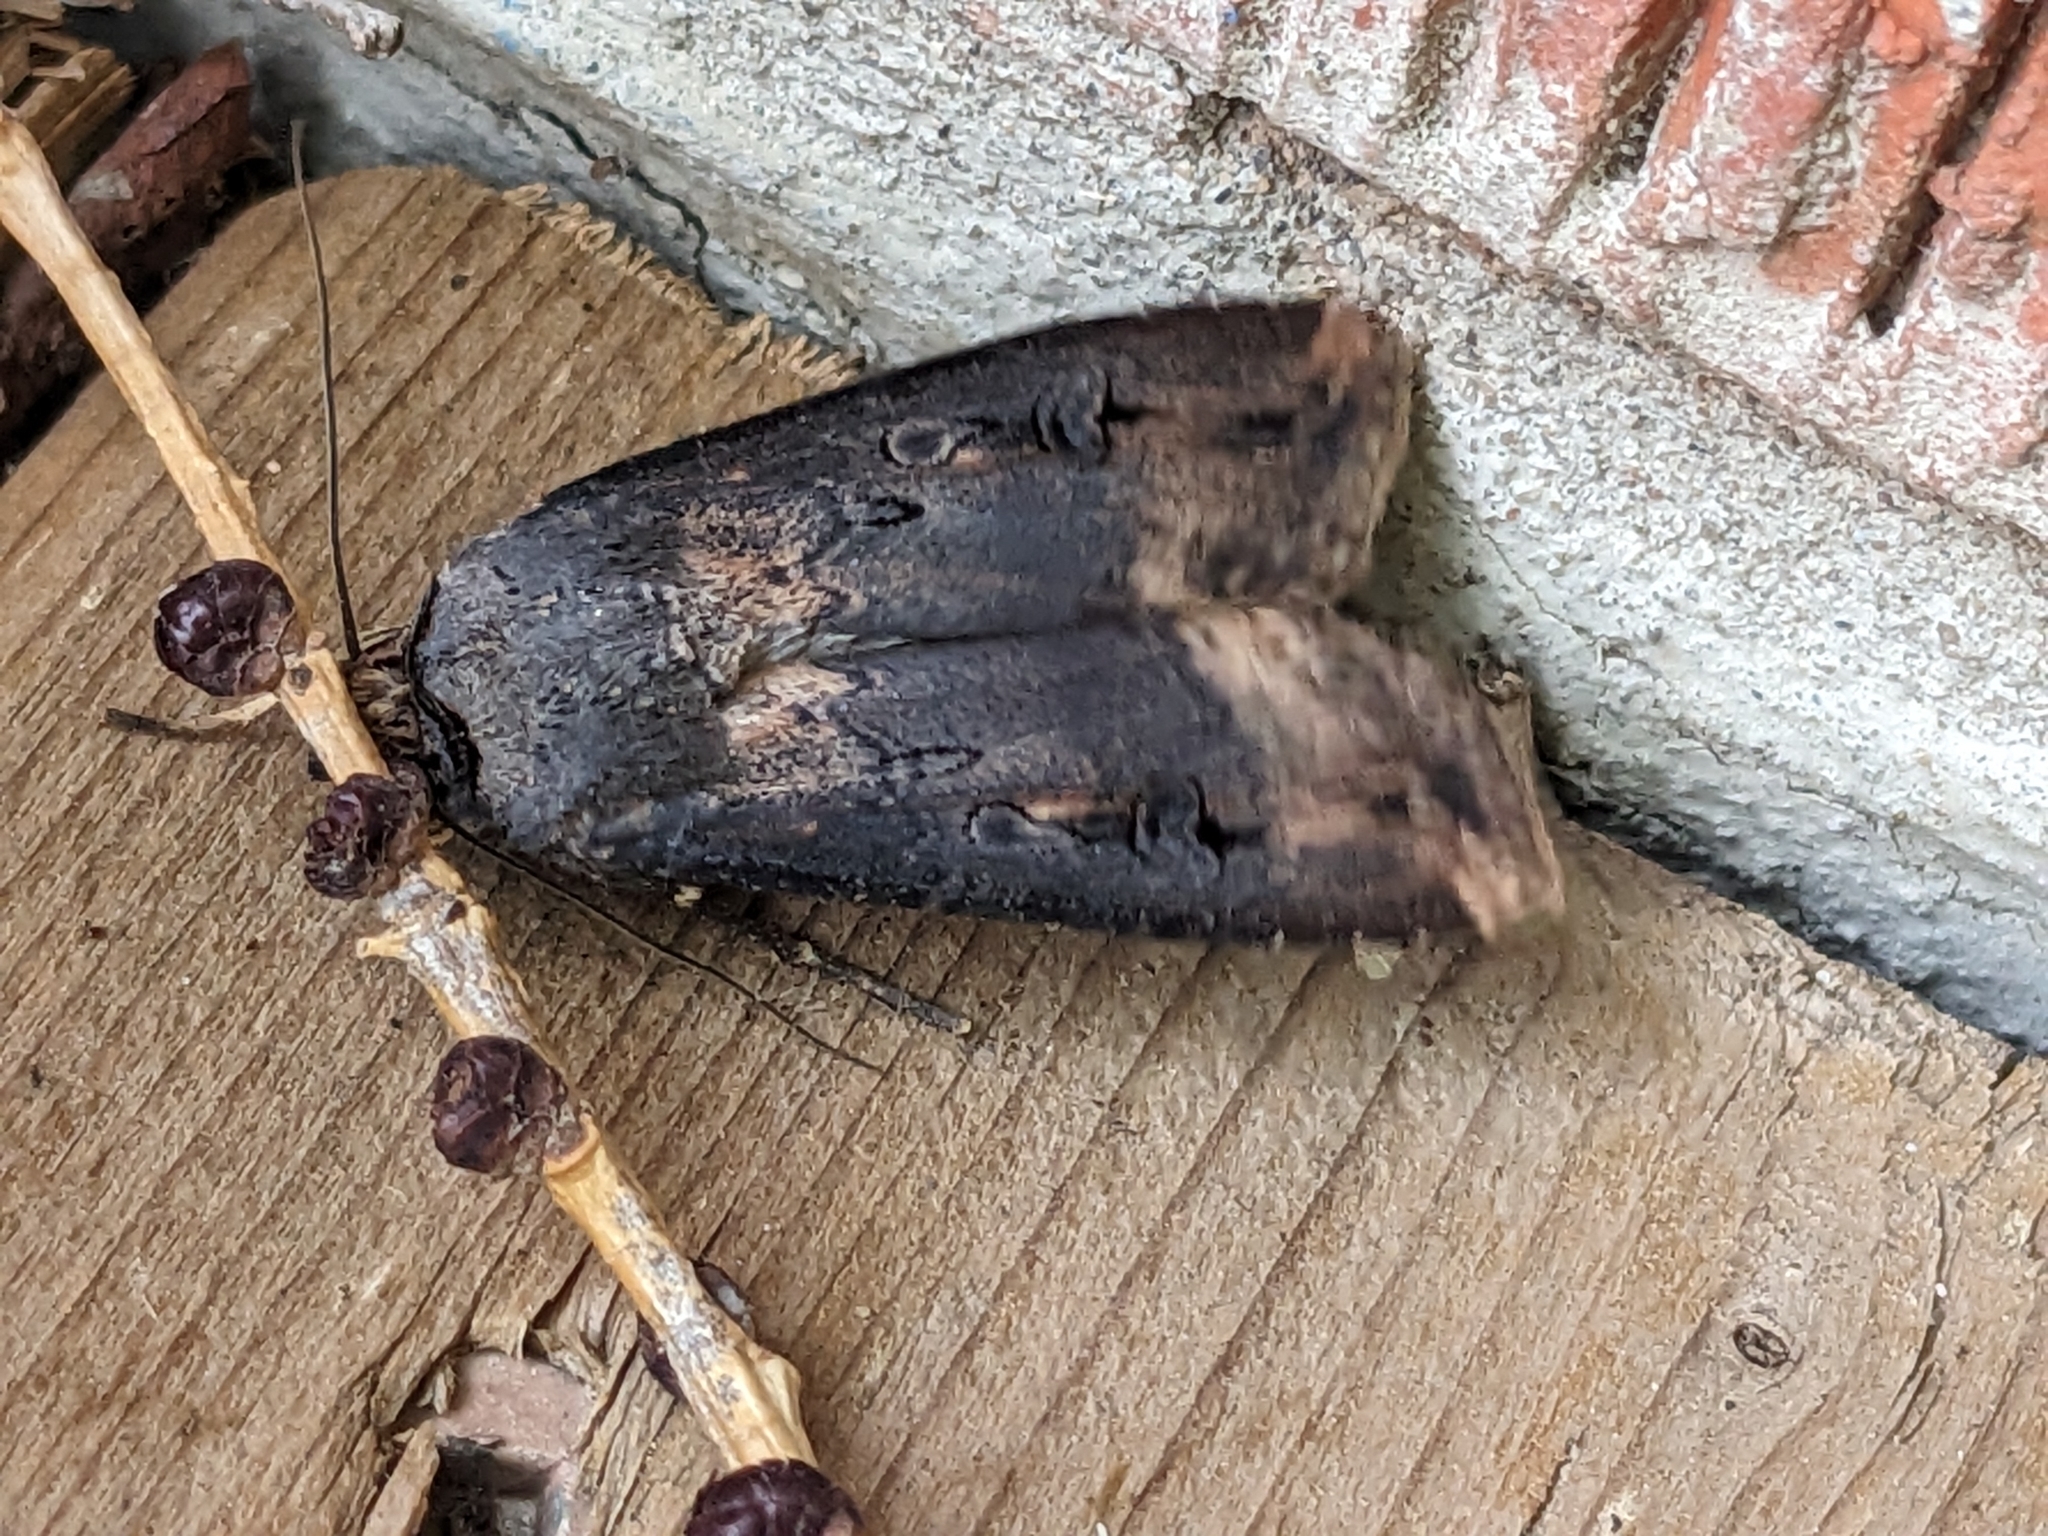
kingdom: Animalia
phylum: Arthropoda
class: Insecta
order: Lepidoptera
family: Noctuidae
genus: Agrotis
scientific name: Agrotis ipsilon
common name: Dark sword-grass
